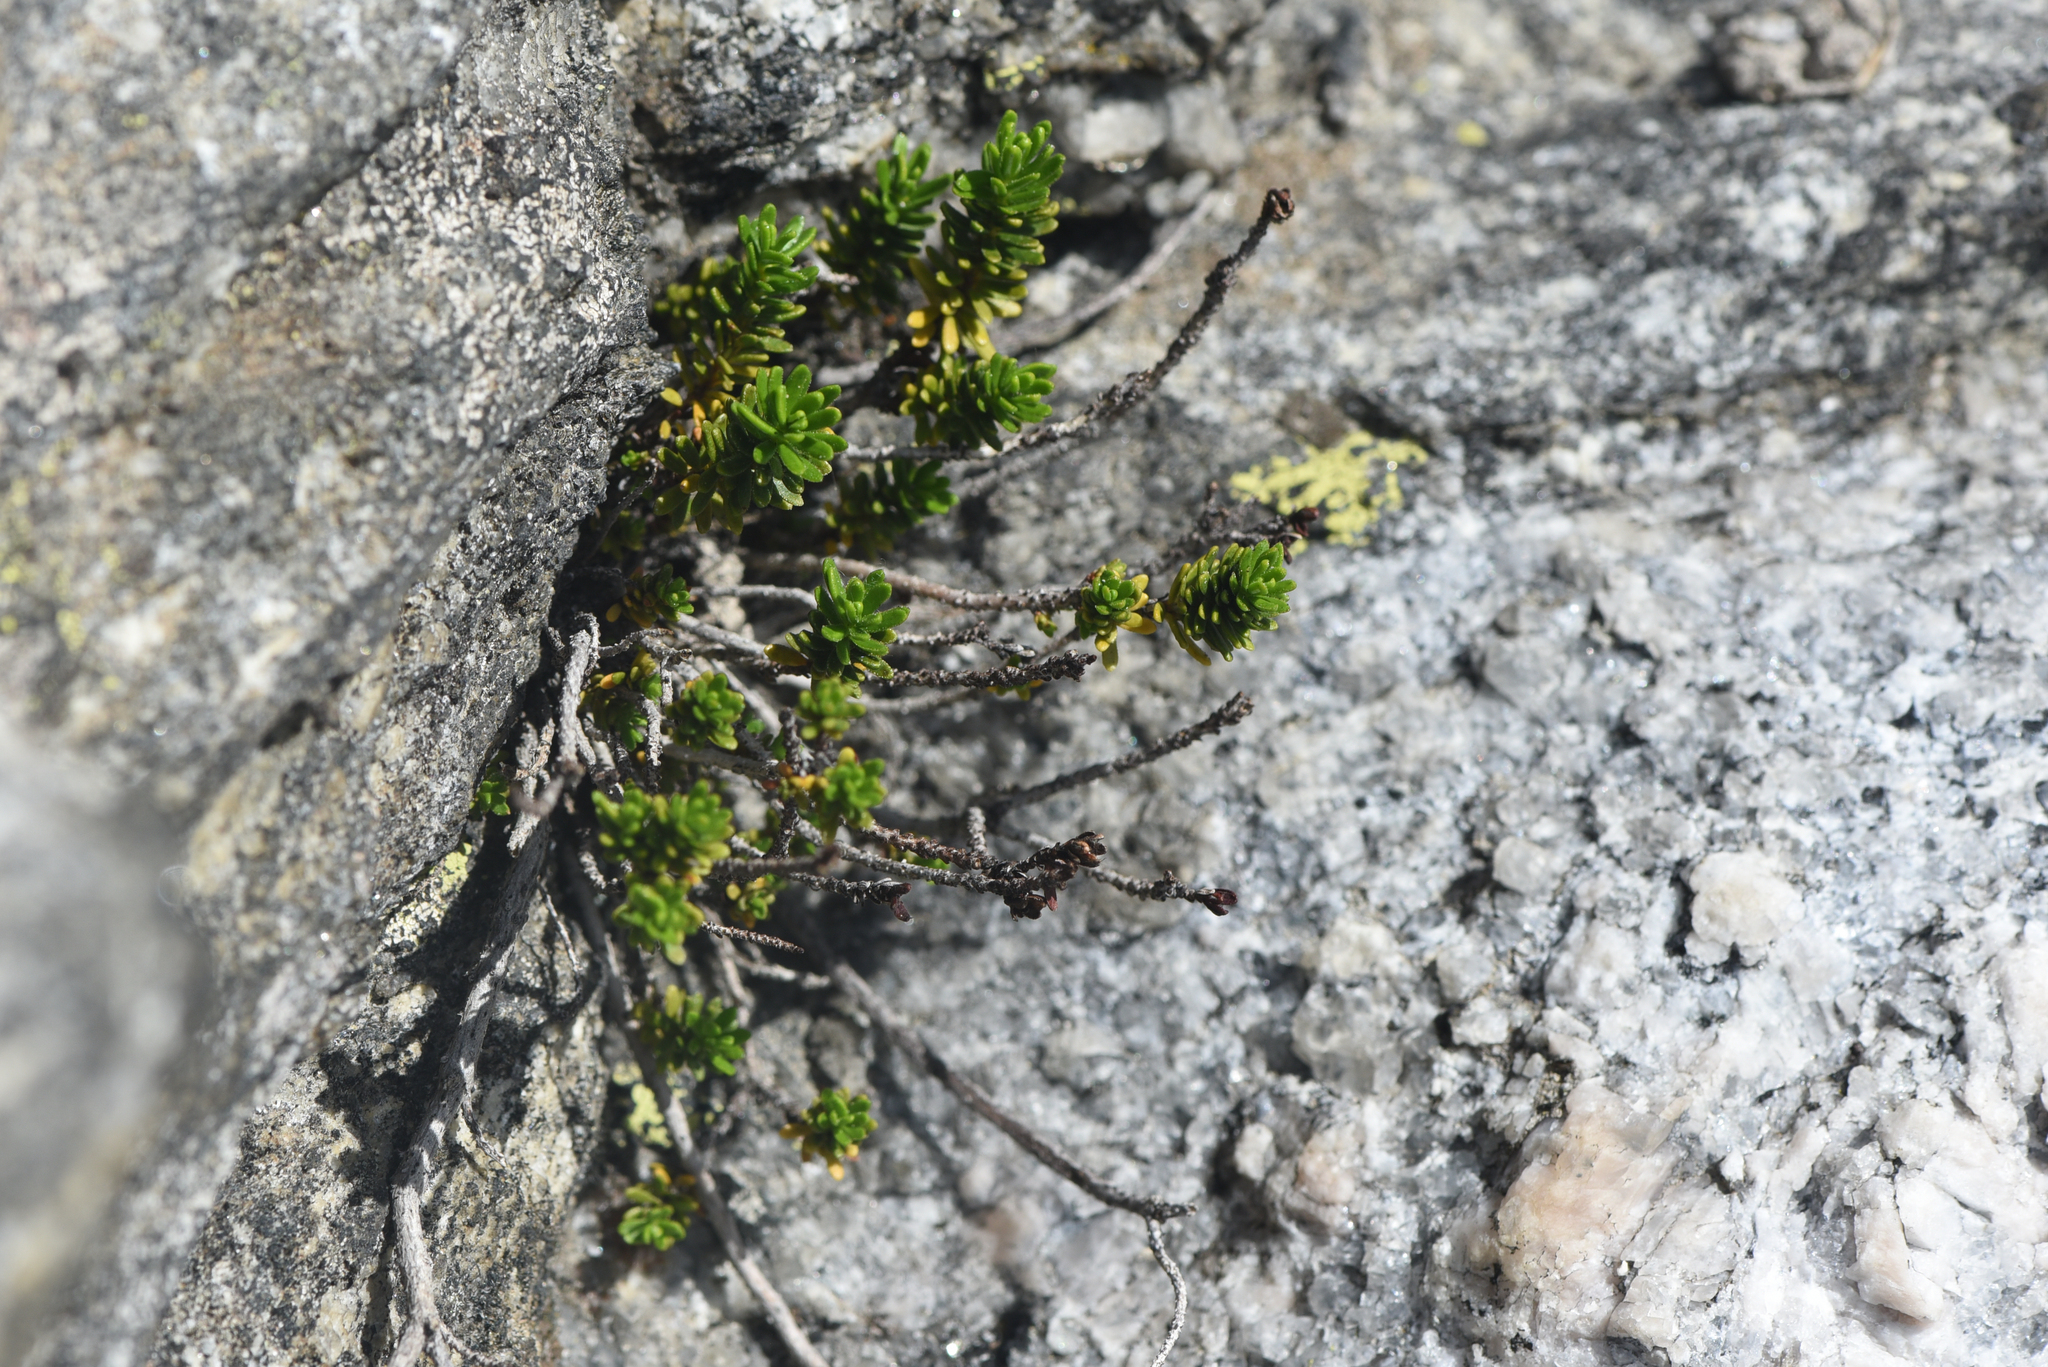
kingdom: Plantae
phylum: Tracheophyta
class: Magnoliopsida
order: Ericales
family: Ericaceae
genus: Empetrum
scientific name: Empetrum nigrum
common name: Black crowberry
